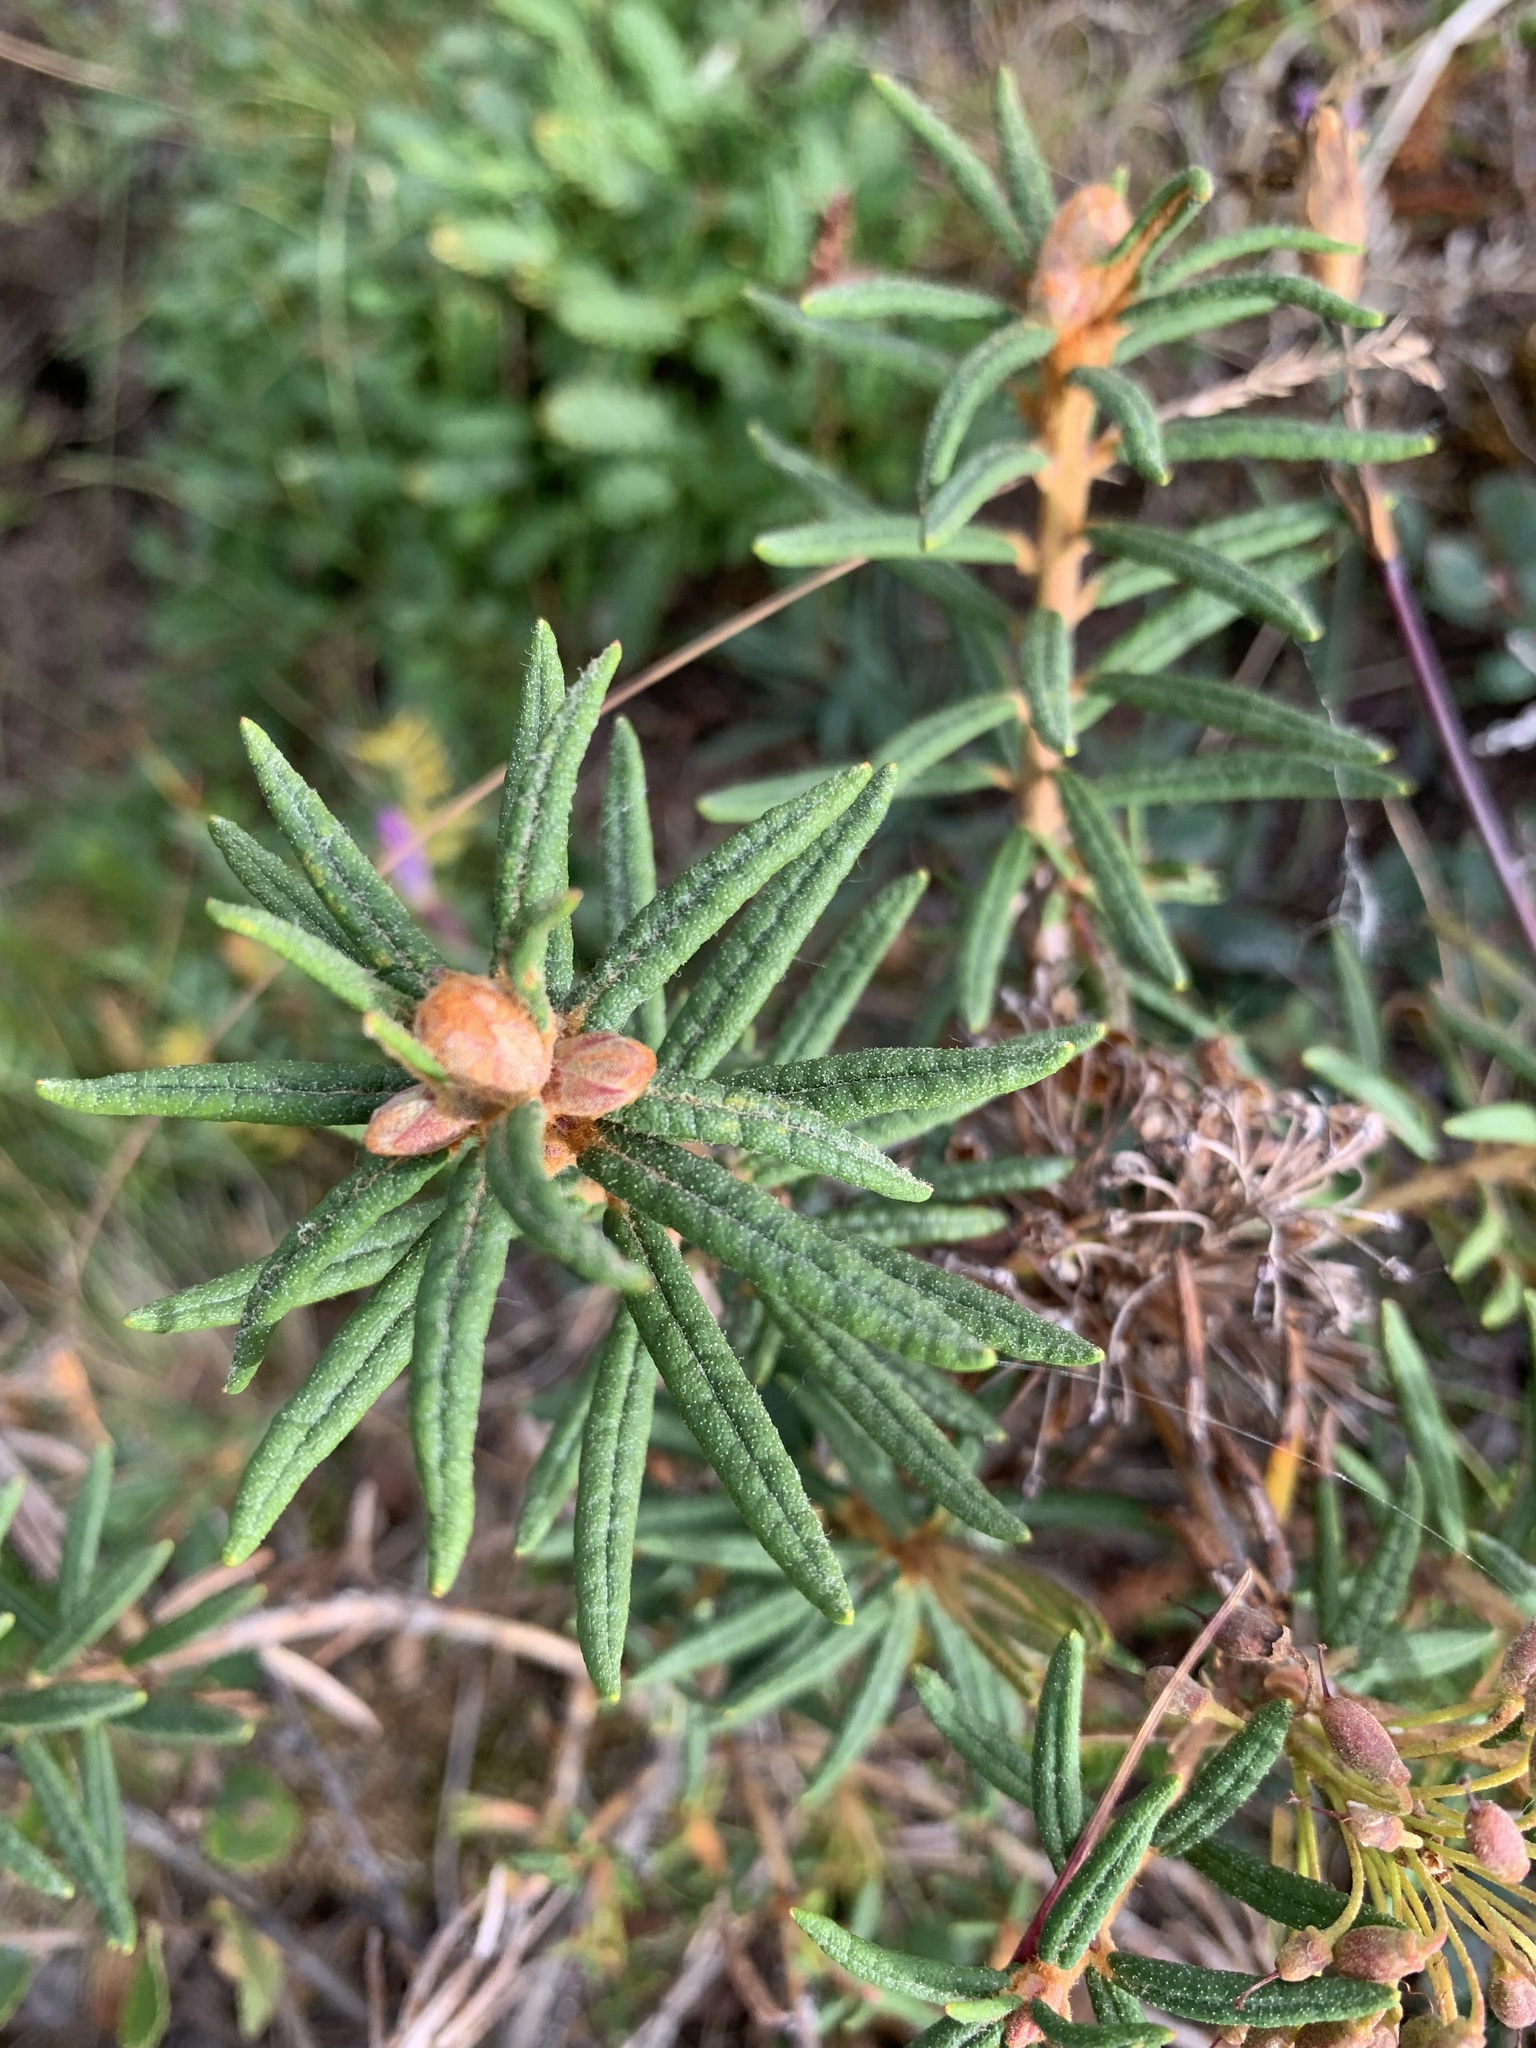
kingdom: Plantae
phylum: Tracheophyta
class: Magnoliopsida
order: Ericales
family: Ericaceae
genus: Rhododendron
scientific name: Rhododendron tomentosum
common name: Marsh labrador tea
